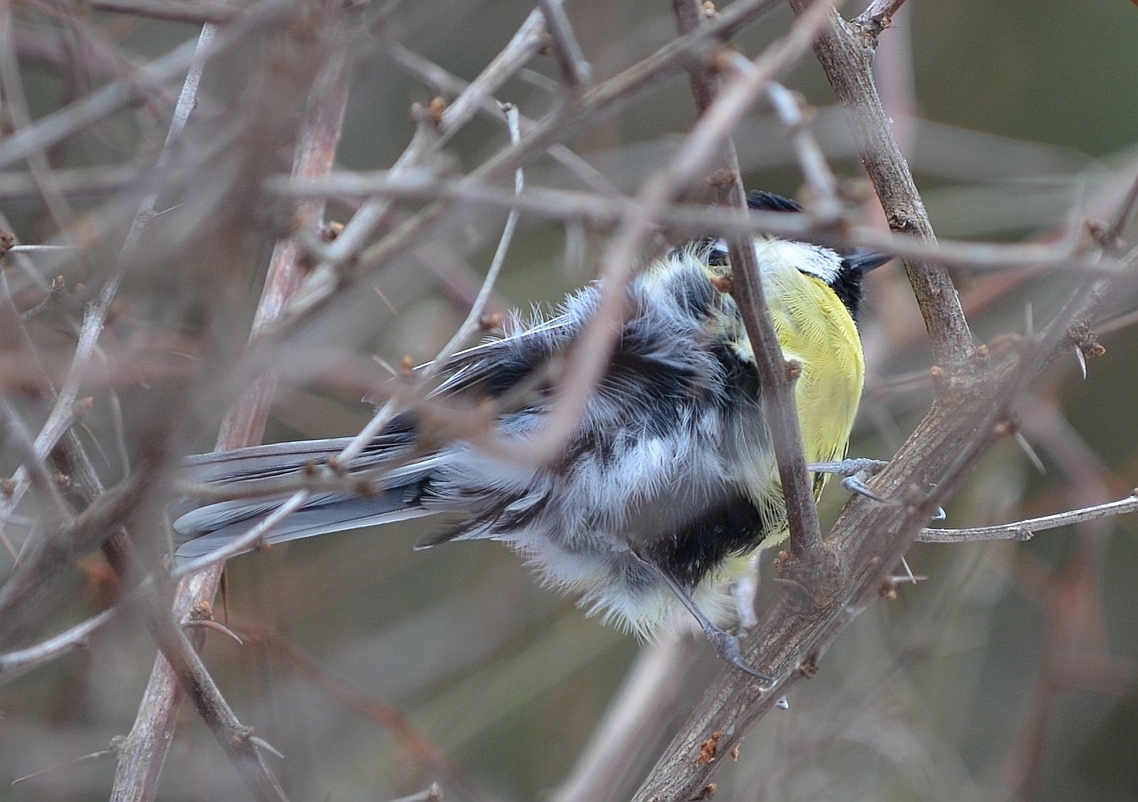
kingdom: Animalia
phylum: Chordata
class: Aves
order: Passeriformes
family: Paridae
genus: Parus
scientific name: Parus major
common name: Great tit
